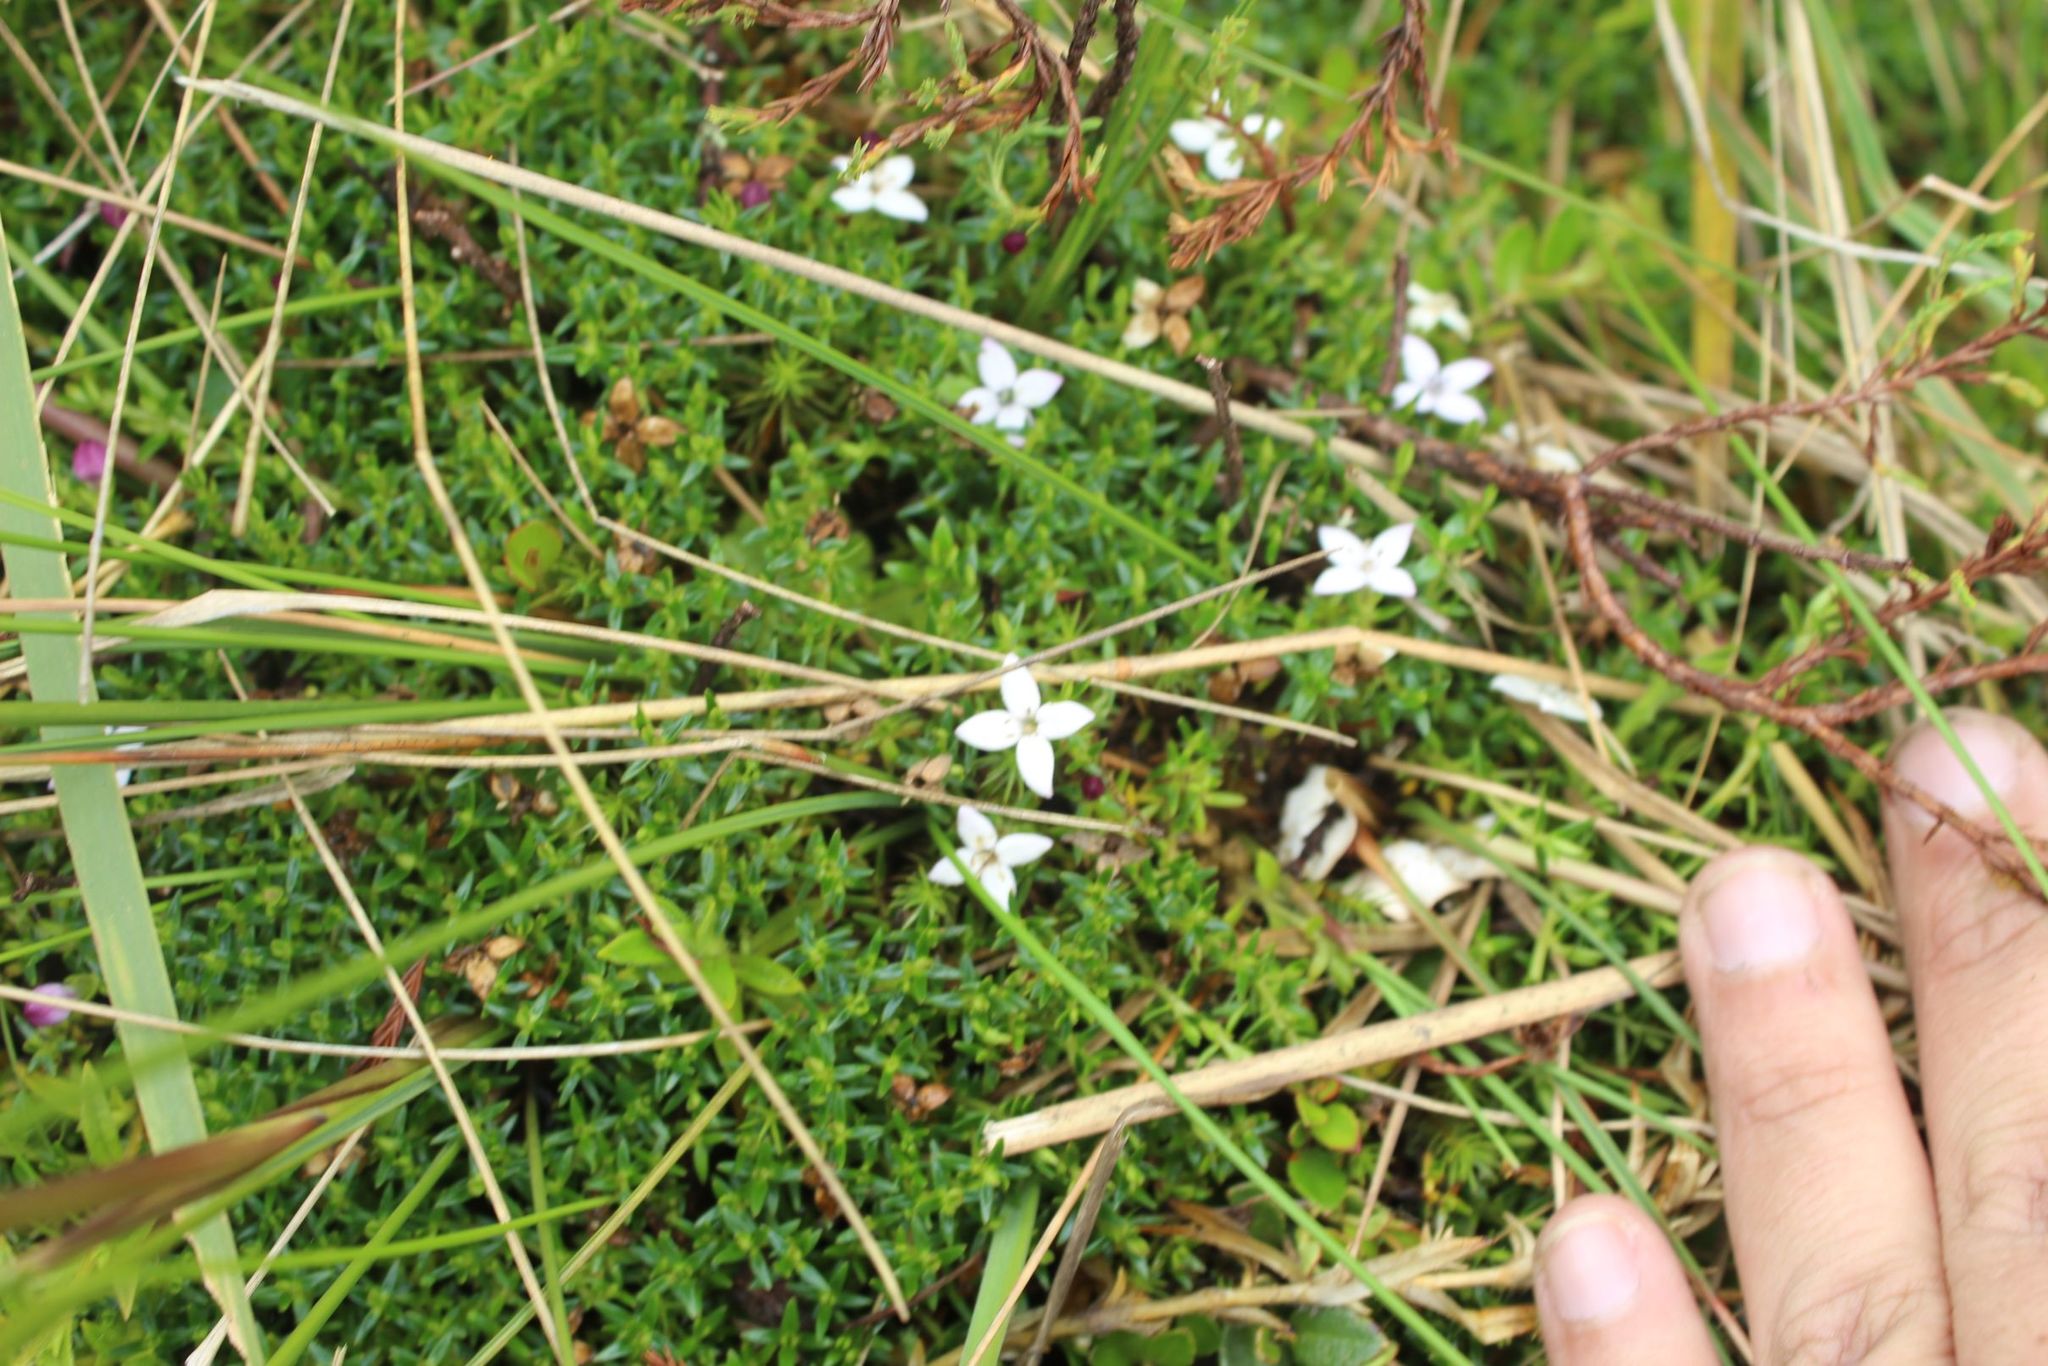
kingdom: Plantae
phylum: Tracheophyta
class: Magnoliopsida
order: Gentianales
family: Rubiaceae
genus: Arcytophyllum
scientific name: Arcytophyllum muticum
